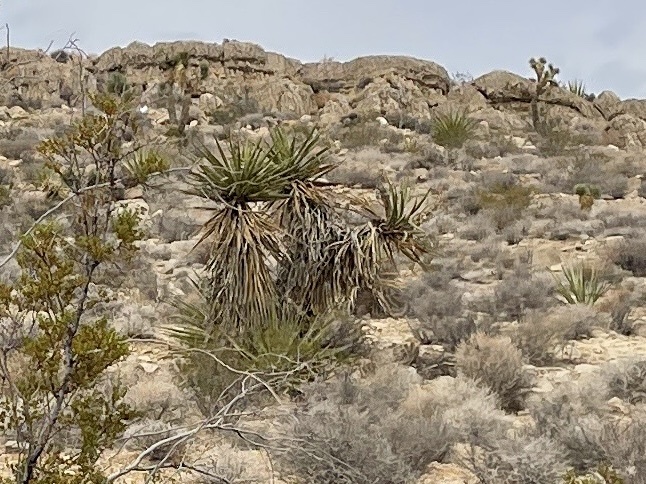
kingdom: Plantae
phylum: Tracheophyta
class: Liliopsida
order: Asparagales
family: Asparagaceae
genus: Yucca
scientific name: Yucca schidigera
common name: Mojave yucca
